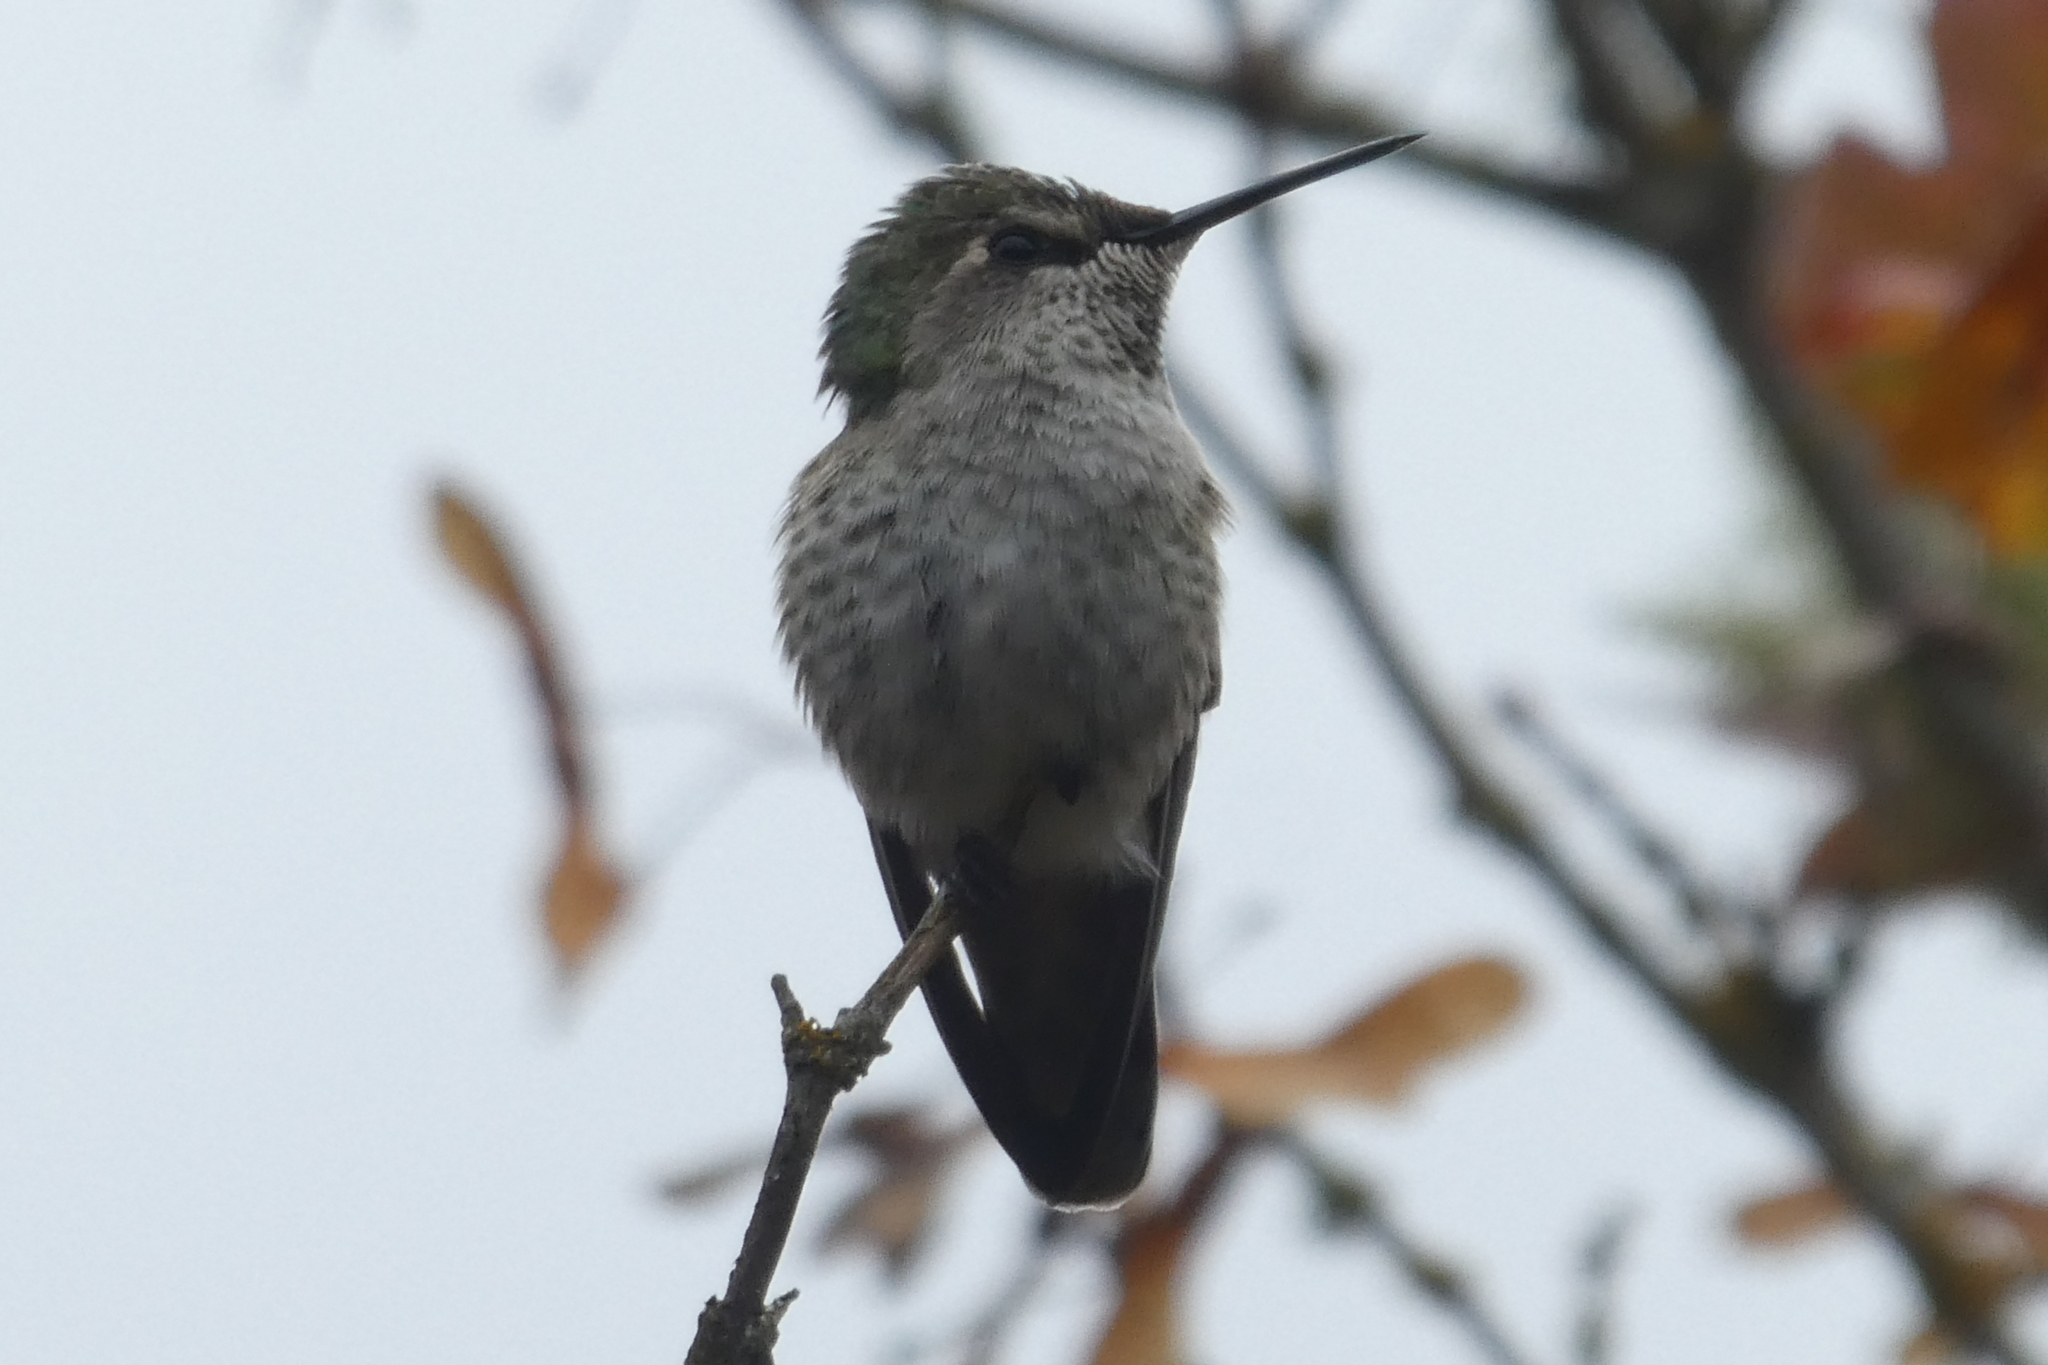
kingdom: Animalia
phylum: Chordata
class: Aves
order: Apodiformes
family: Trochilidae
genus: Calypte
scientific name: Calypte anna
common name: Anna's hummingbird
